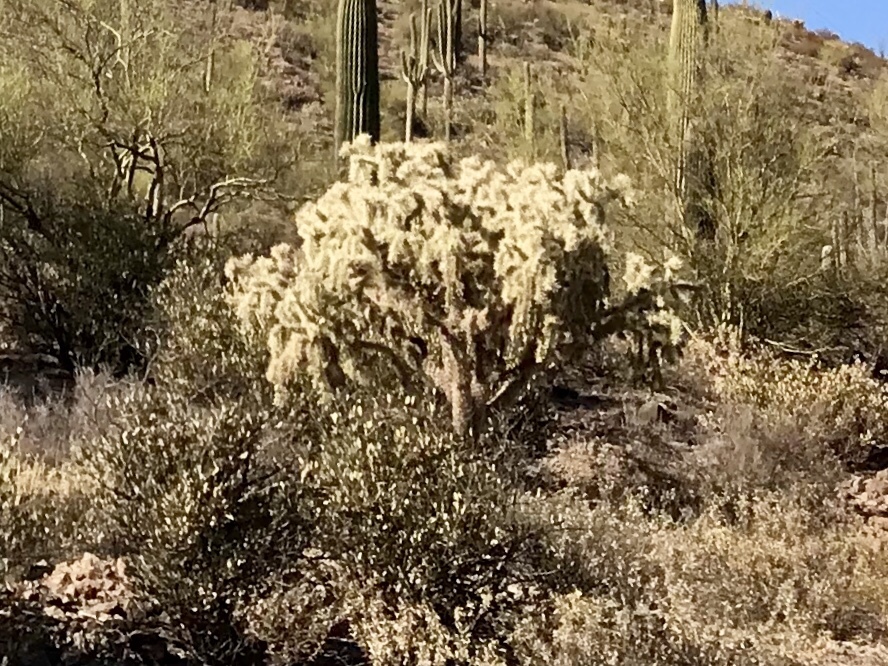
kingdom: Plantae
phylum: Tracheophyta
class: Magnoliopsida
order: Caryophyllales
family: Cactaceae
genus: Cylindropuntia
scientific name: Cylindropuntia fulgida
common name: Jumping cholla
